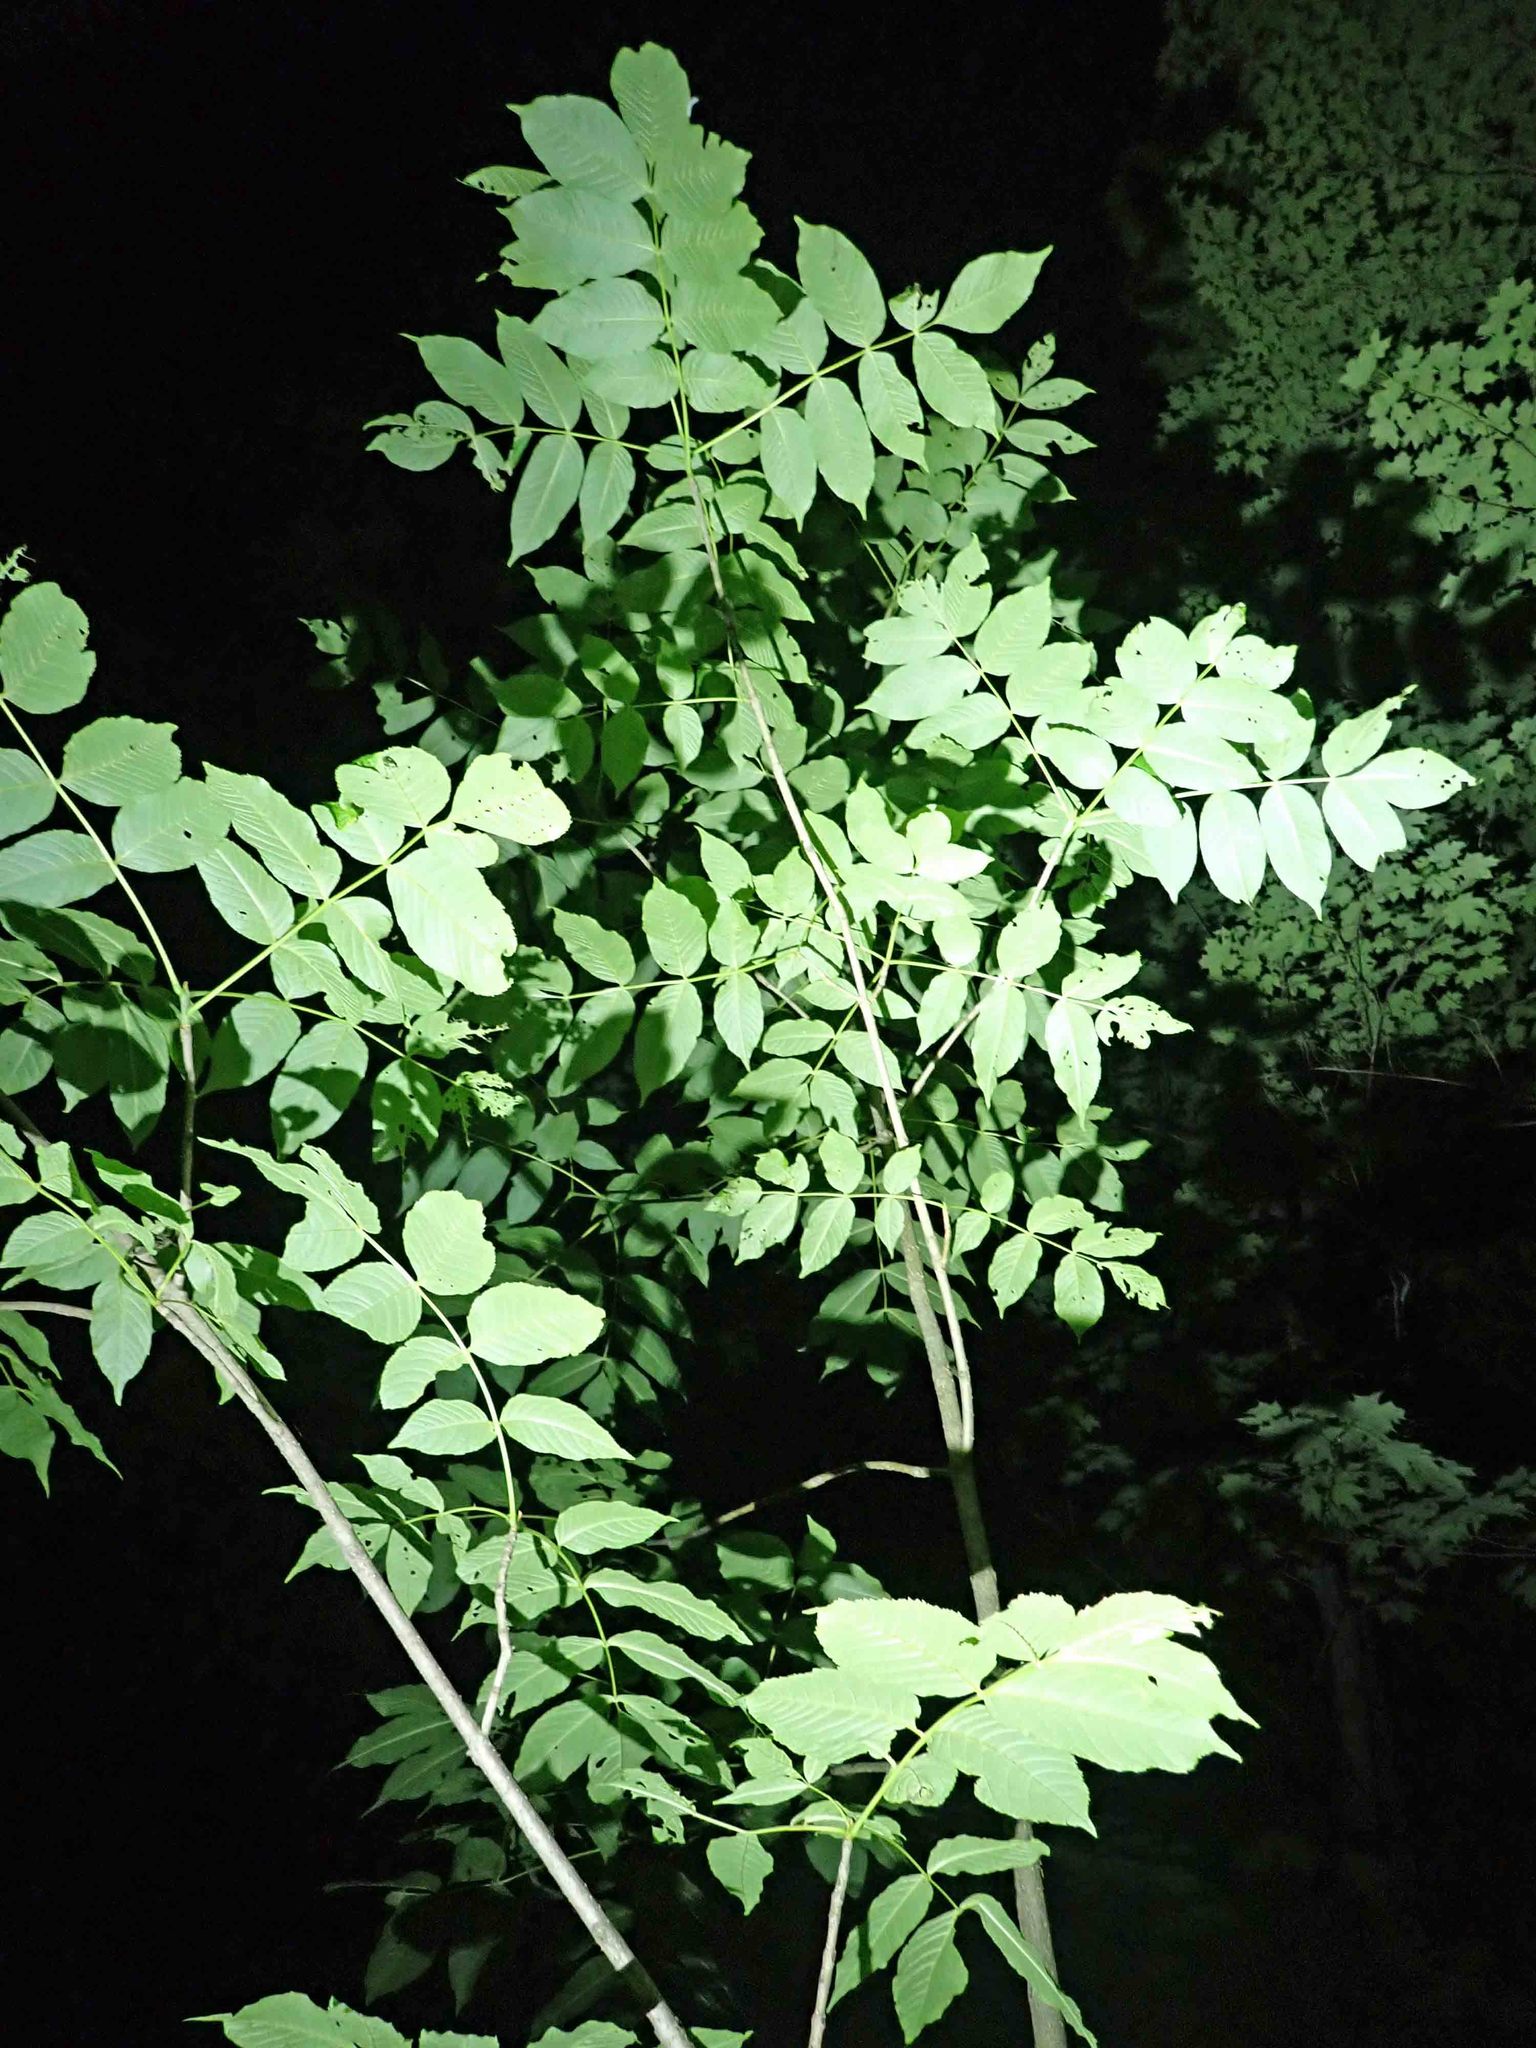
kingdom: Plantae
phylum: Tracheophyta
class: Magnoliopsida
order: Lamiales
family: Oleaceae
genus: Fraxinus
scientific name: Fraxinus nigra
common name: Black ash
